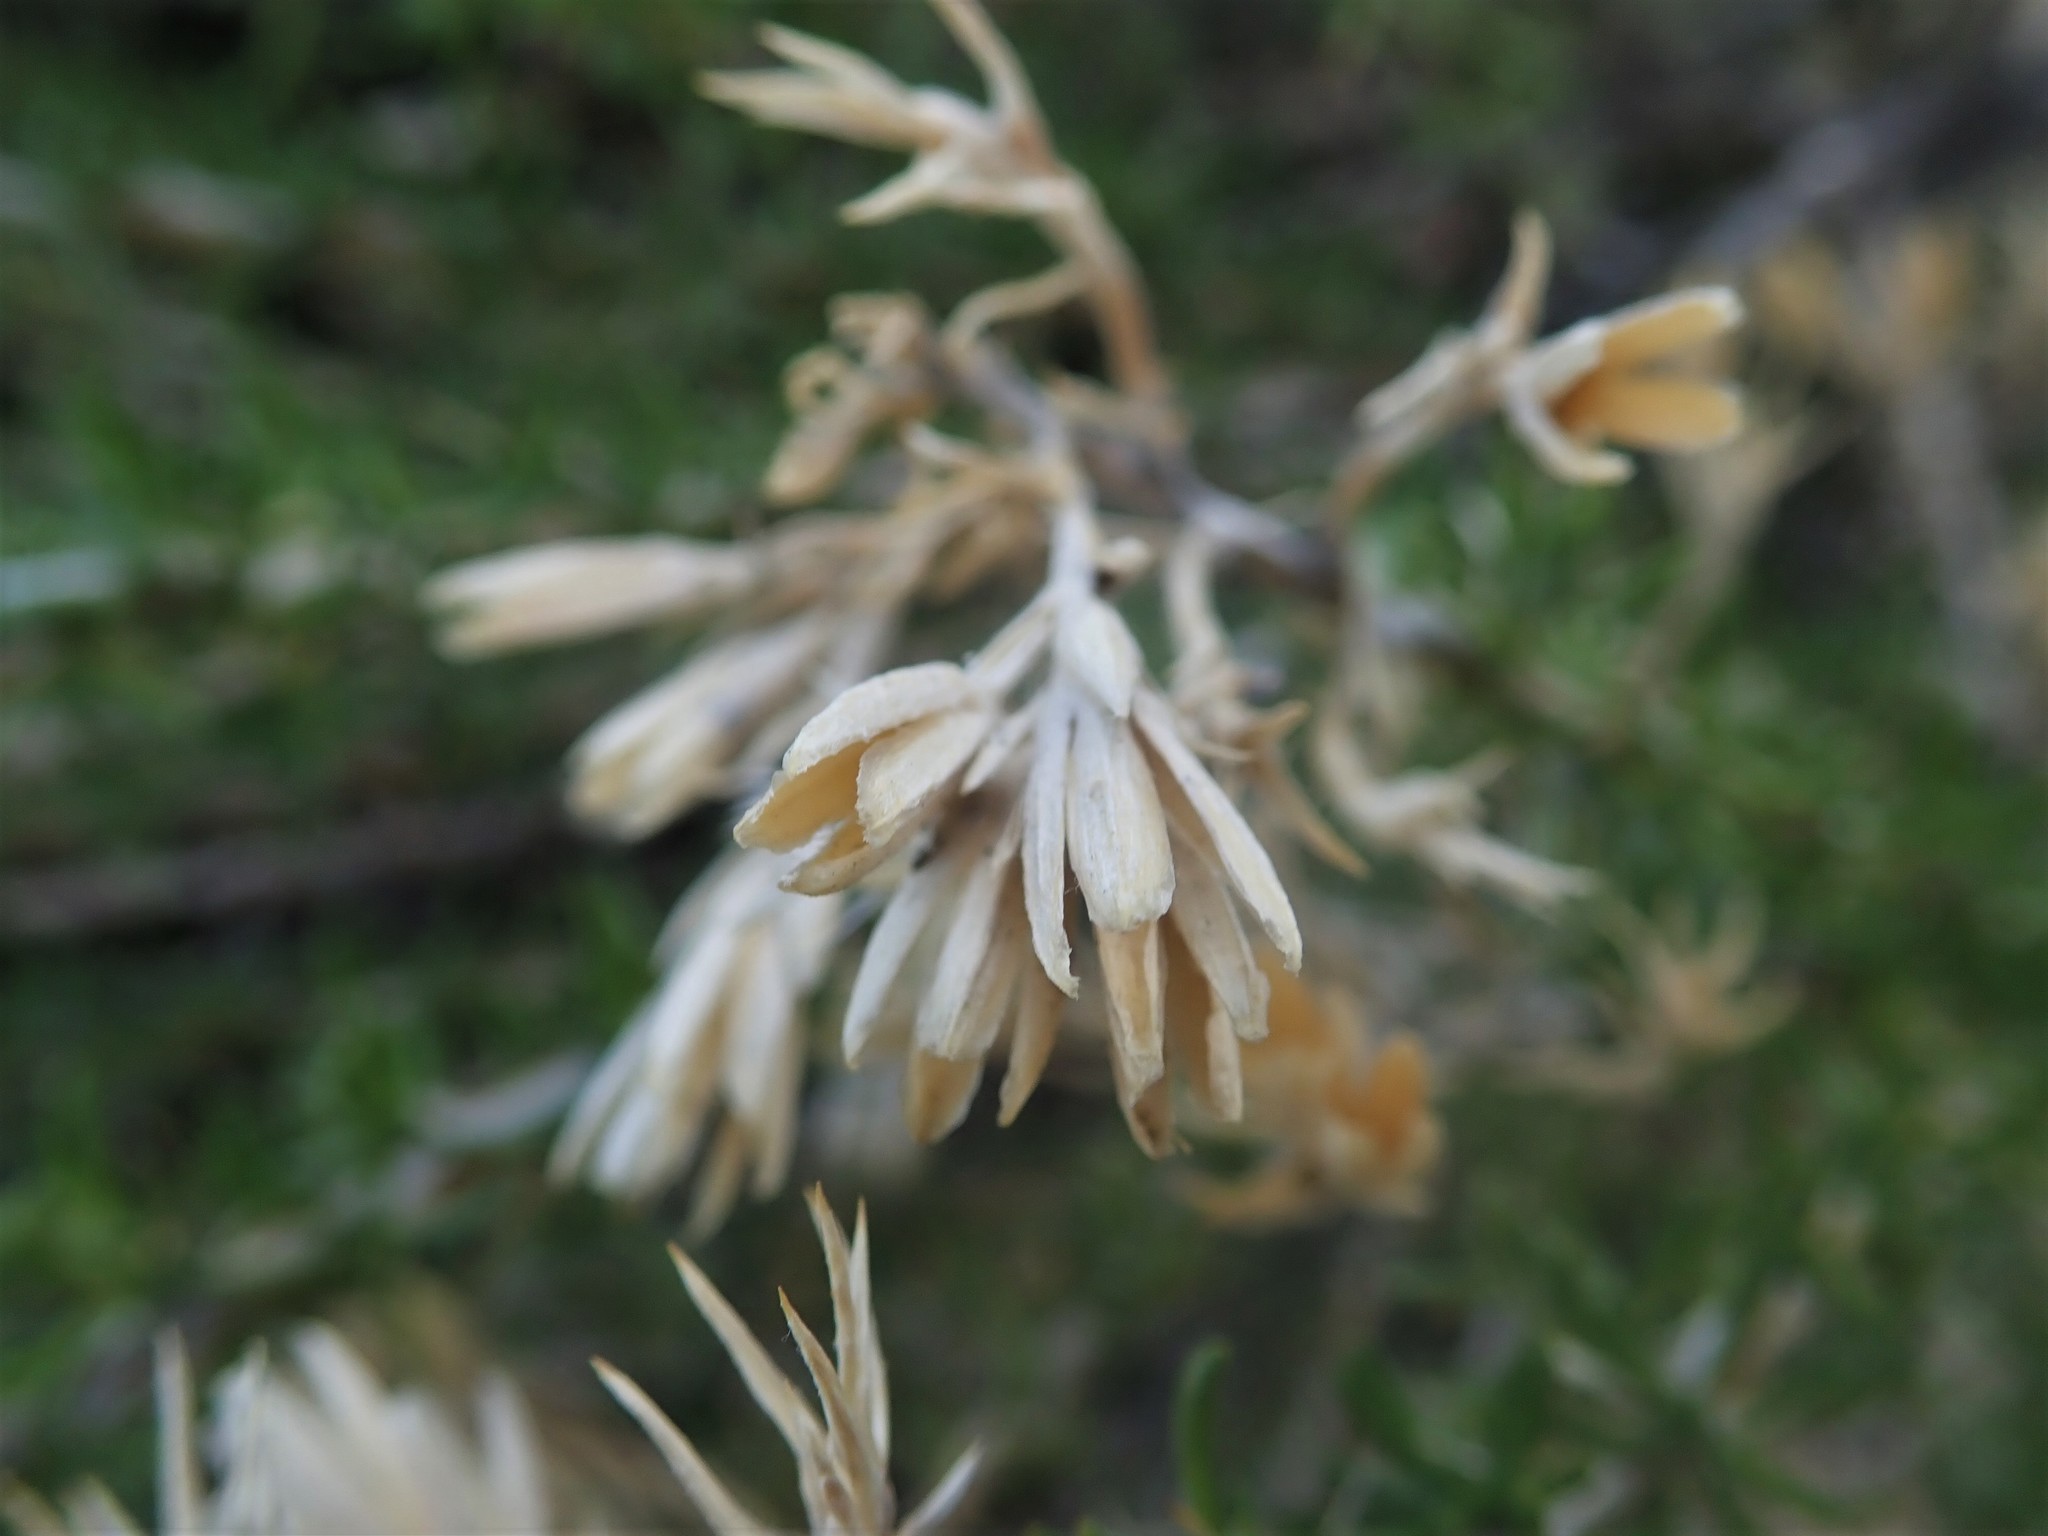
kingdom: Plantae
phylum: Tracheophyta
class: Magnoliopsida
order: Asterales
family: Asteraceae
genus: Tetradymia
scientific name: Tetradymia glabrata
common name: Smooth tetradymia
